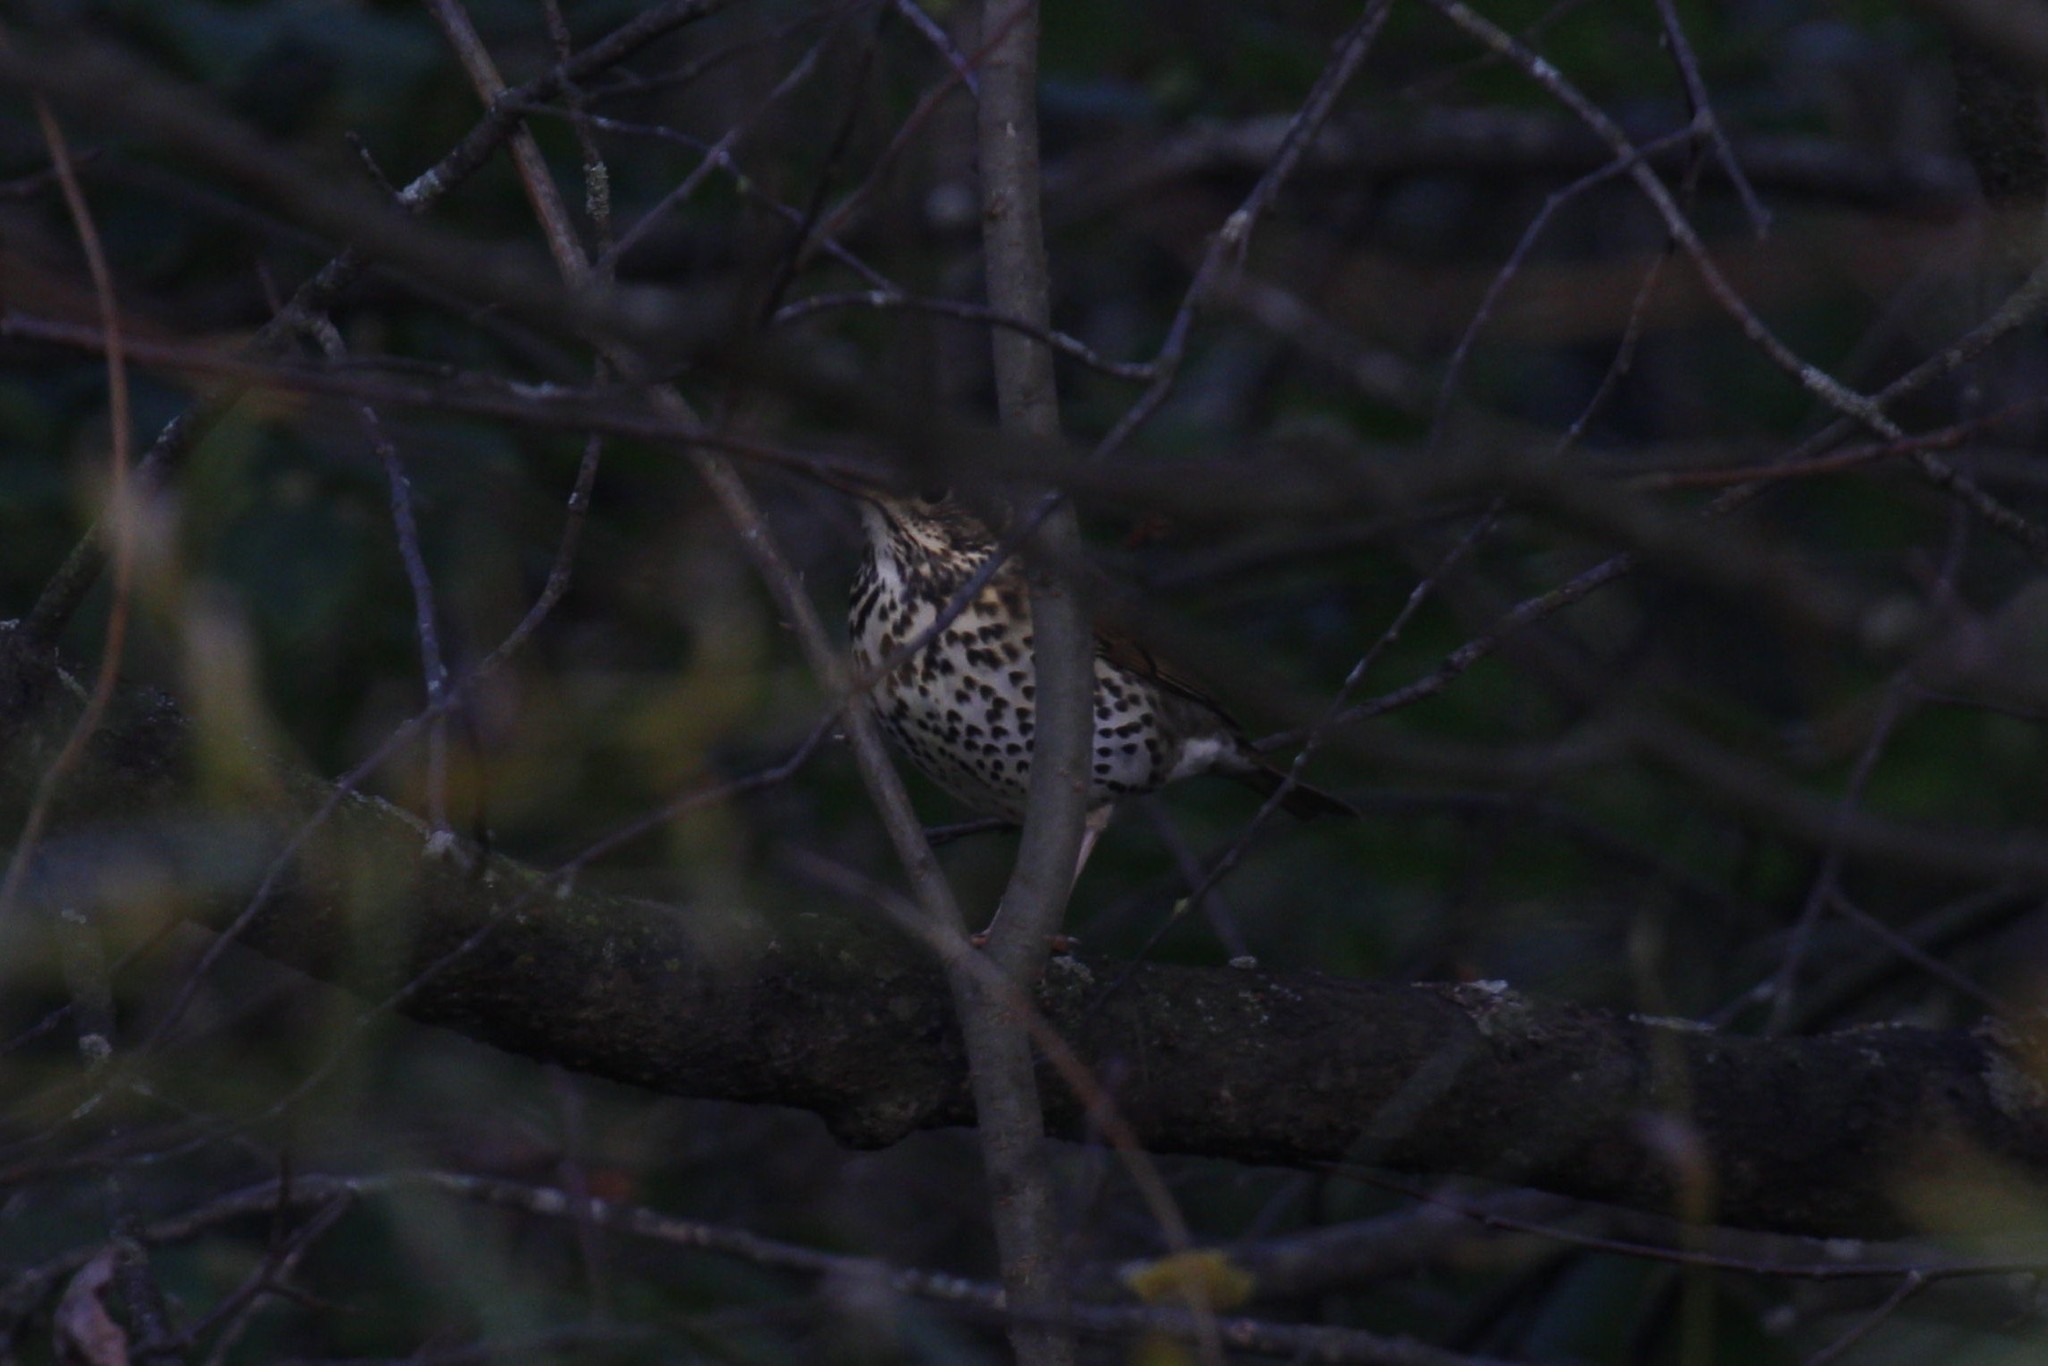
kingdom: Animalia
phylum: Chordata
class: Aves
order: Passeriformes
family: Turdidae
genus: Turdus
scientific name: Turdus philomelos
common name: Song thrush
